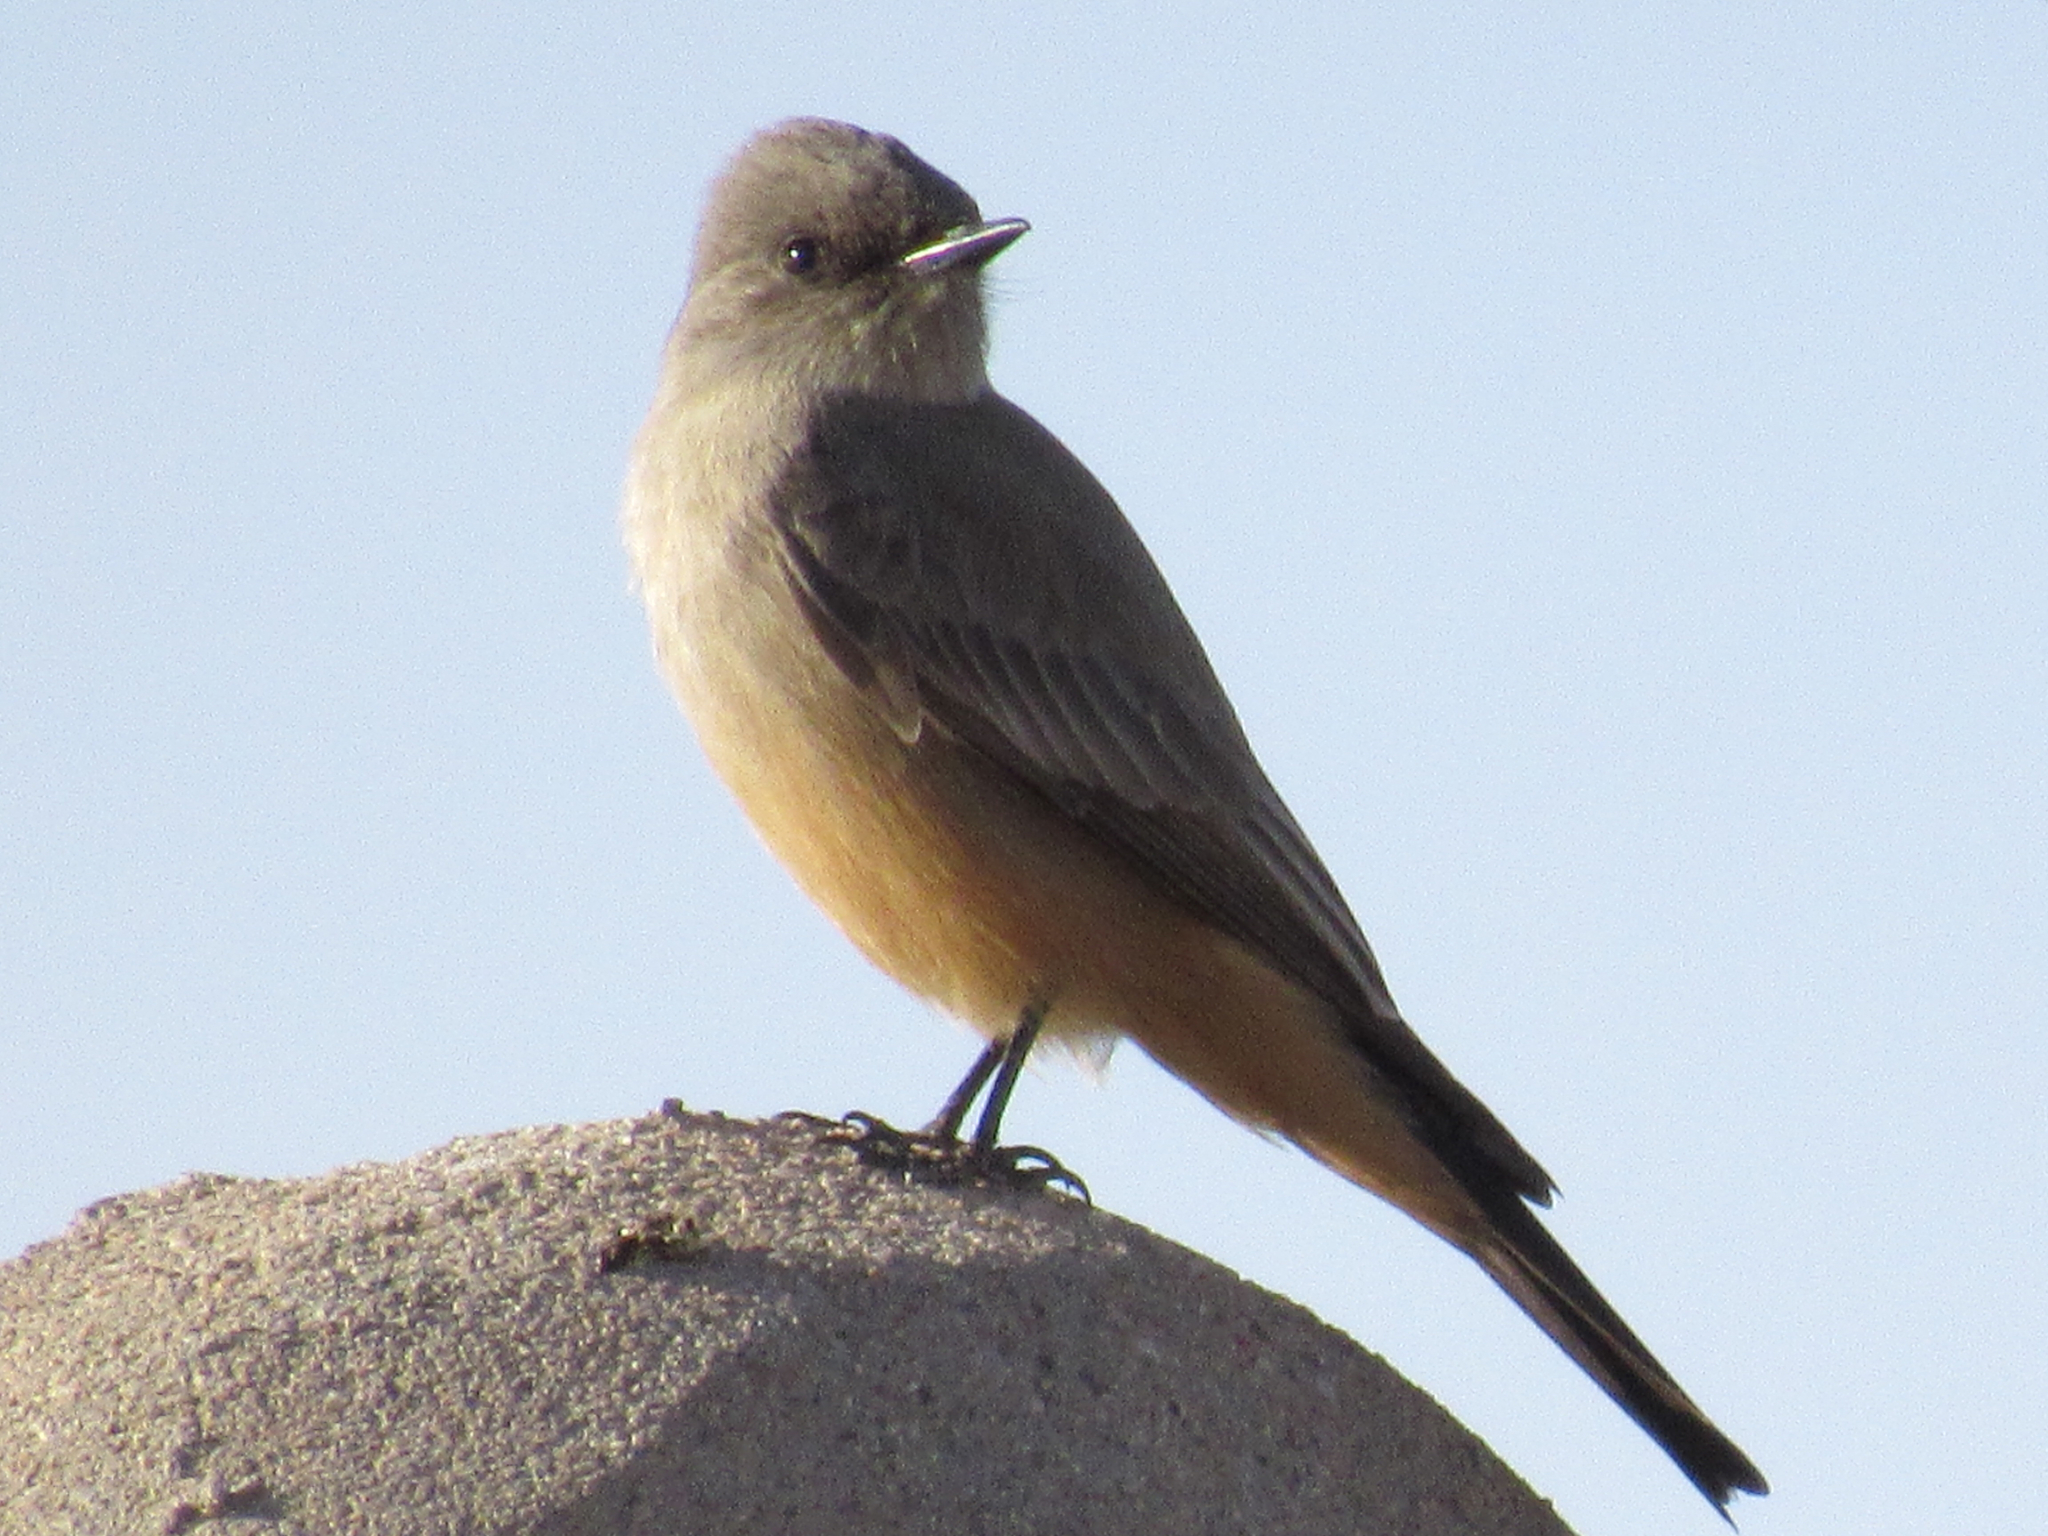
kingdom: Animalia
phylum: Chordata
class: Aves
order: Passeriformes
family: Tyrannidae
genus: Sayornis
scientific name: Sayornis saya
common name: Say's phoebe
